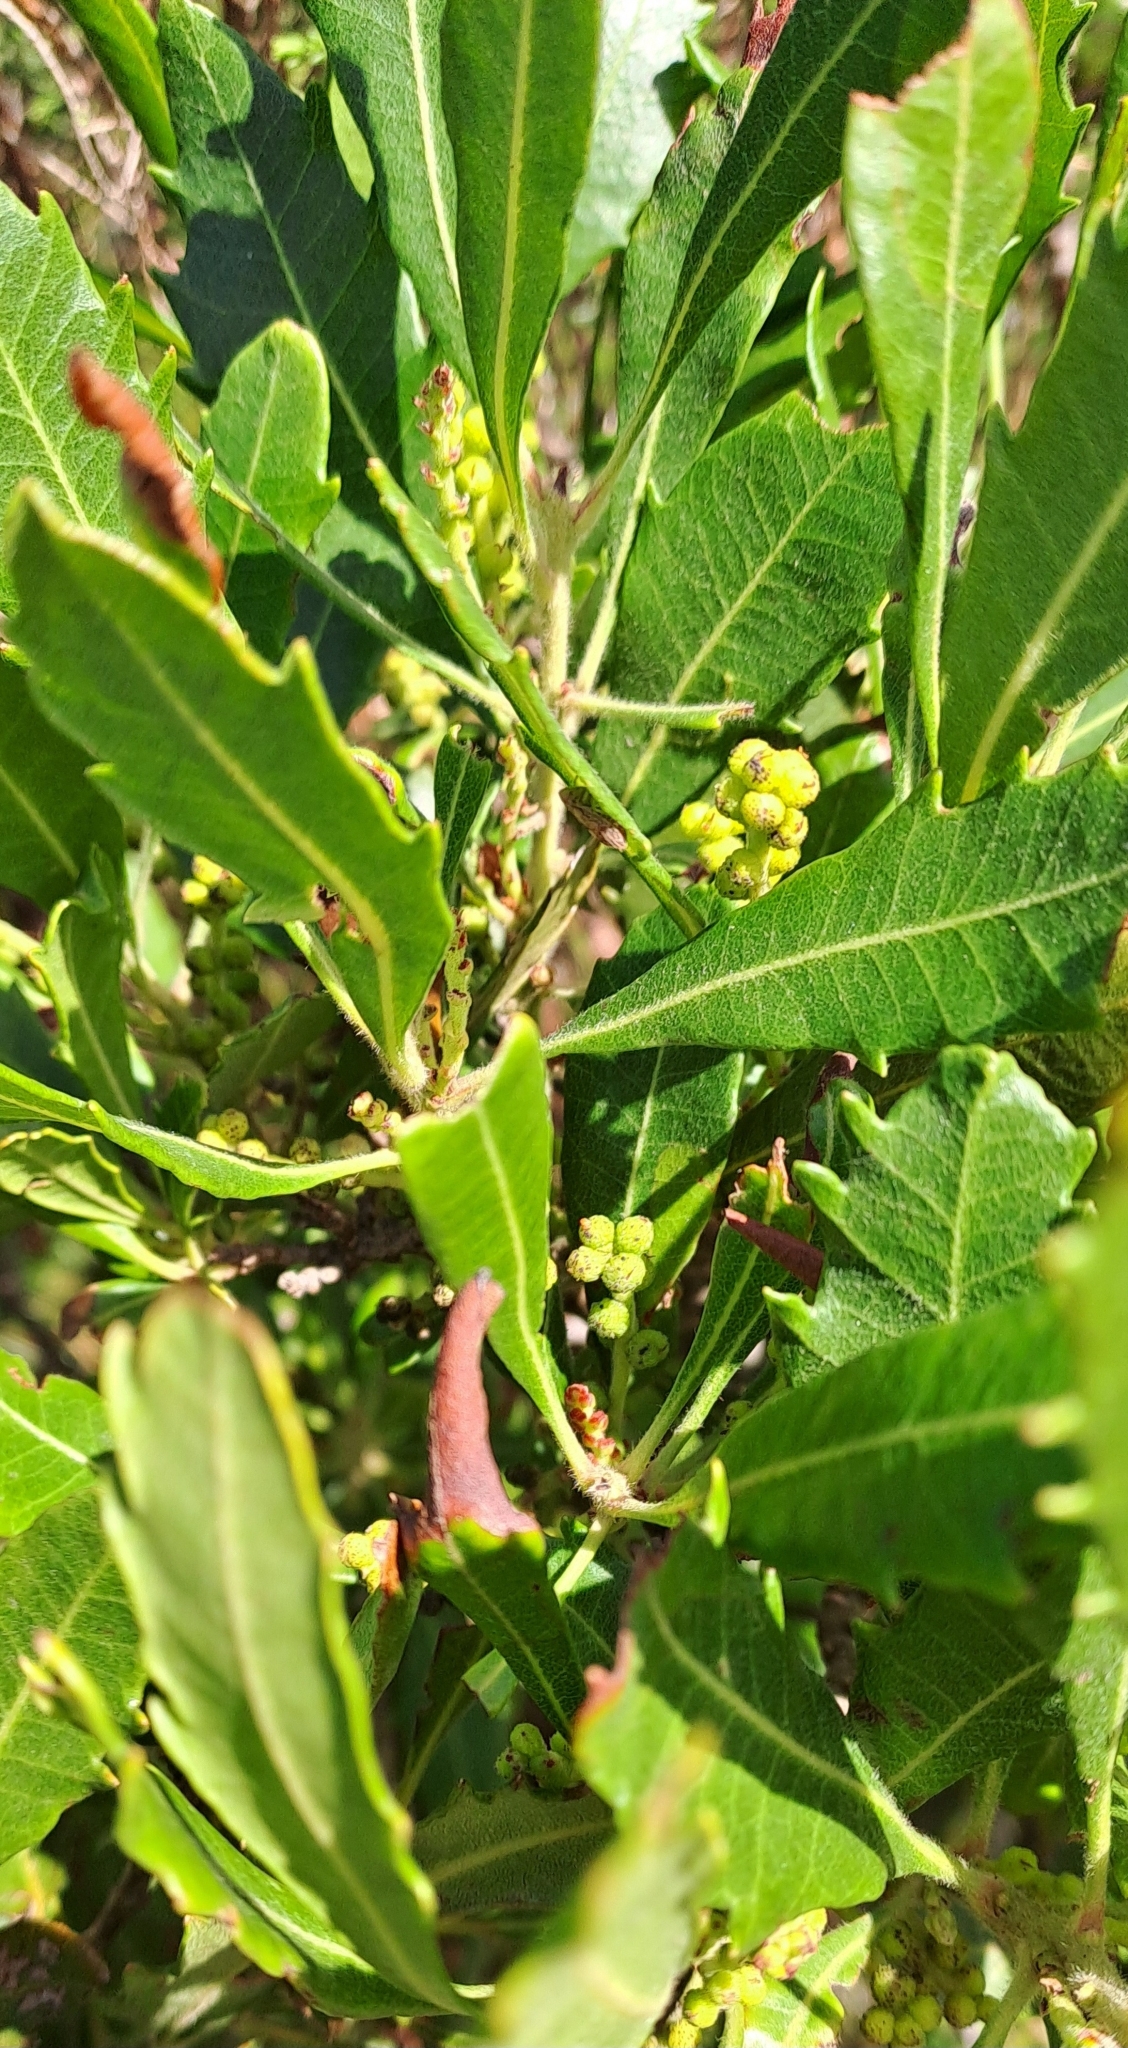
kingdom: Plantae
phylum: Tracheophyta
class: Magnoliopsida
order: Fagales
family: Myricaceae
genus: Morella
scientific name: Morella serrata
